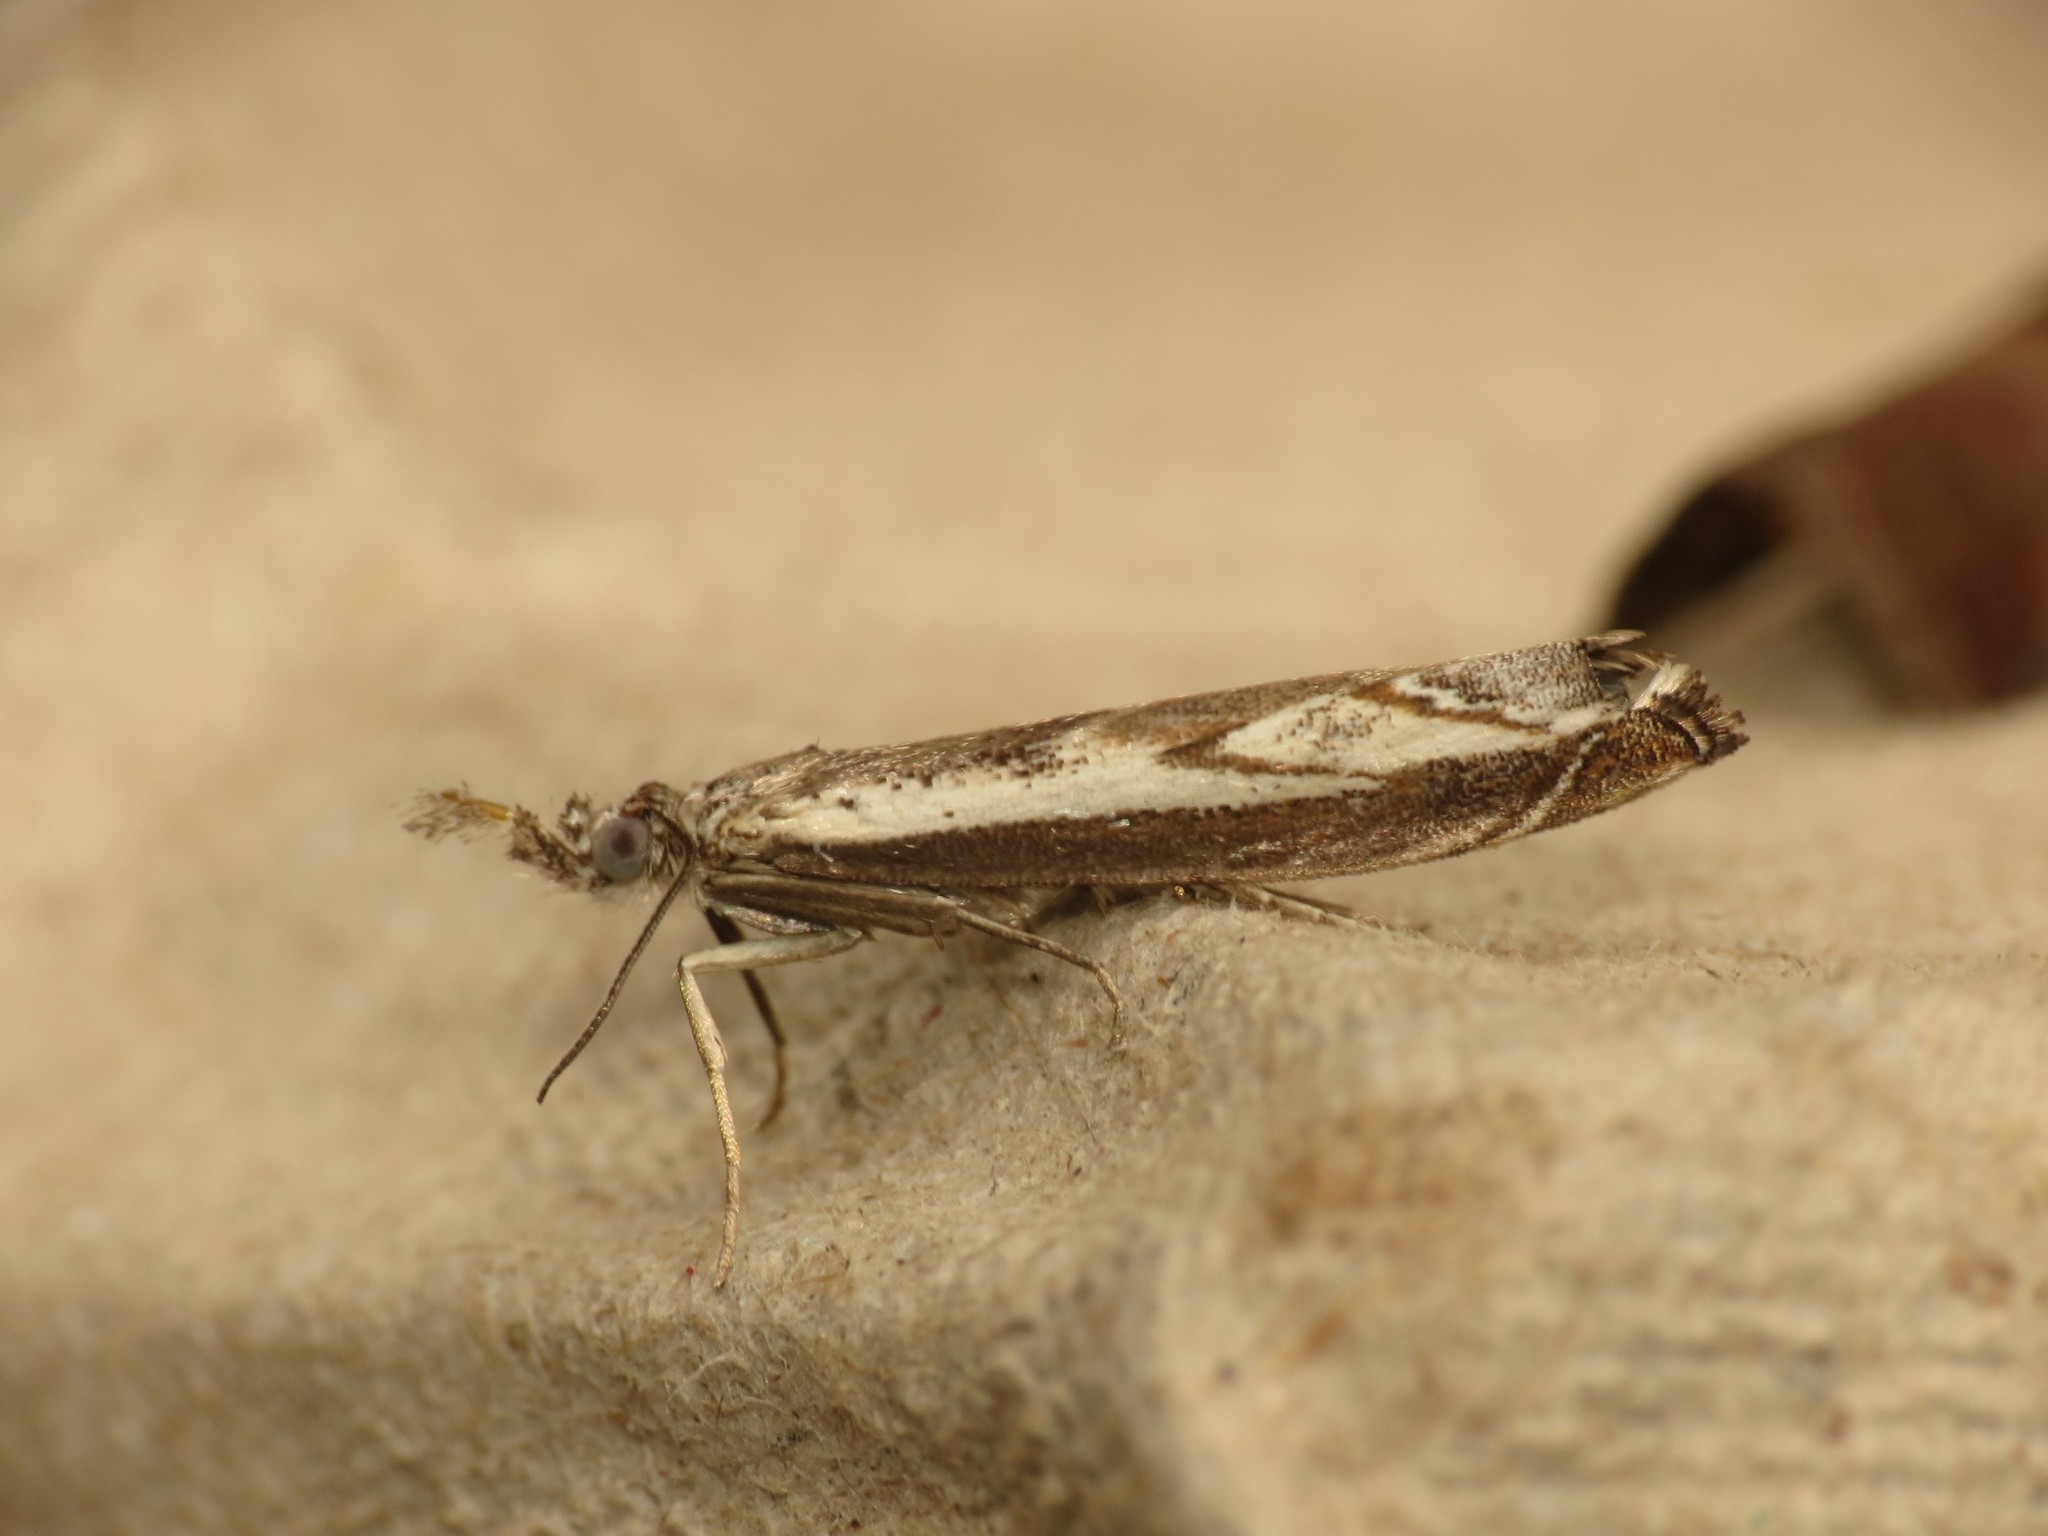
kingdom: Animalia
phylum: Arthropoda
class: Insecta
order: Lepidoptera
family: Crambidae
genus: Platytes
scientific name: Platytes alpinella
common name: Hook-tipped grass-veneer
